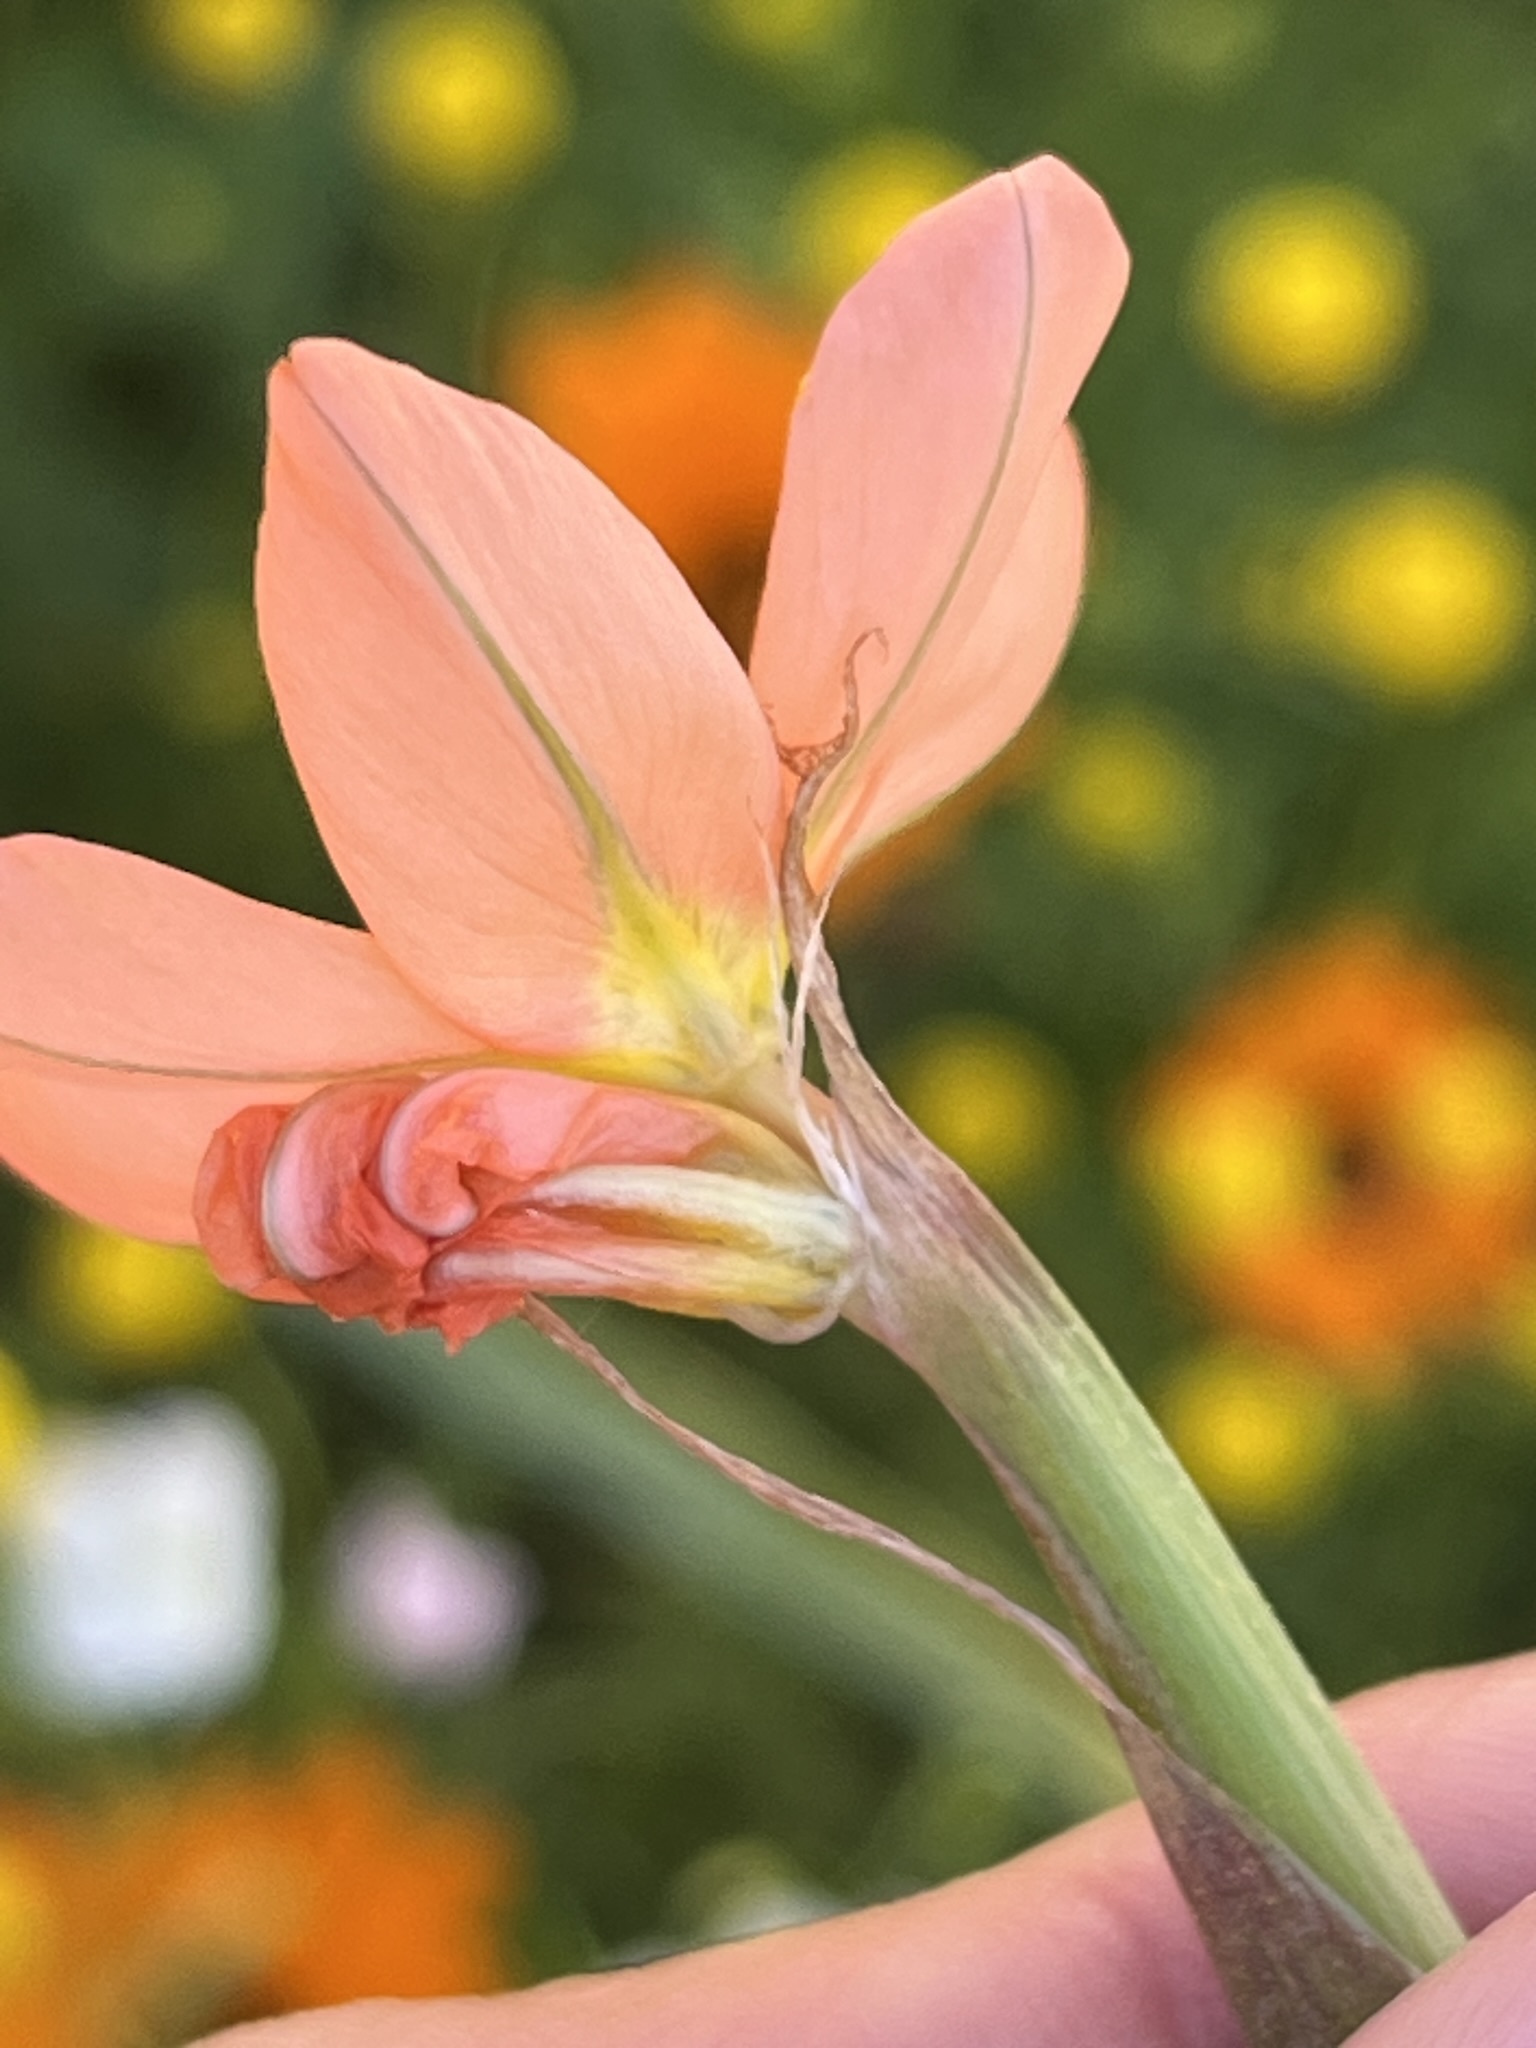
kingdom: Plantae
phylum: Tracheophyta
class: Liliopsida
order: Asparagales
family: Iridaceae
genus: Moraea
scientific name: Moraea miniata
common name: Two-leaf cape-tulip
